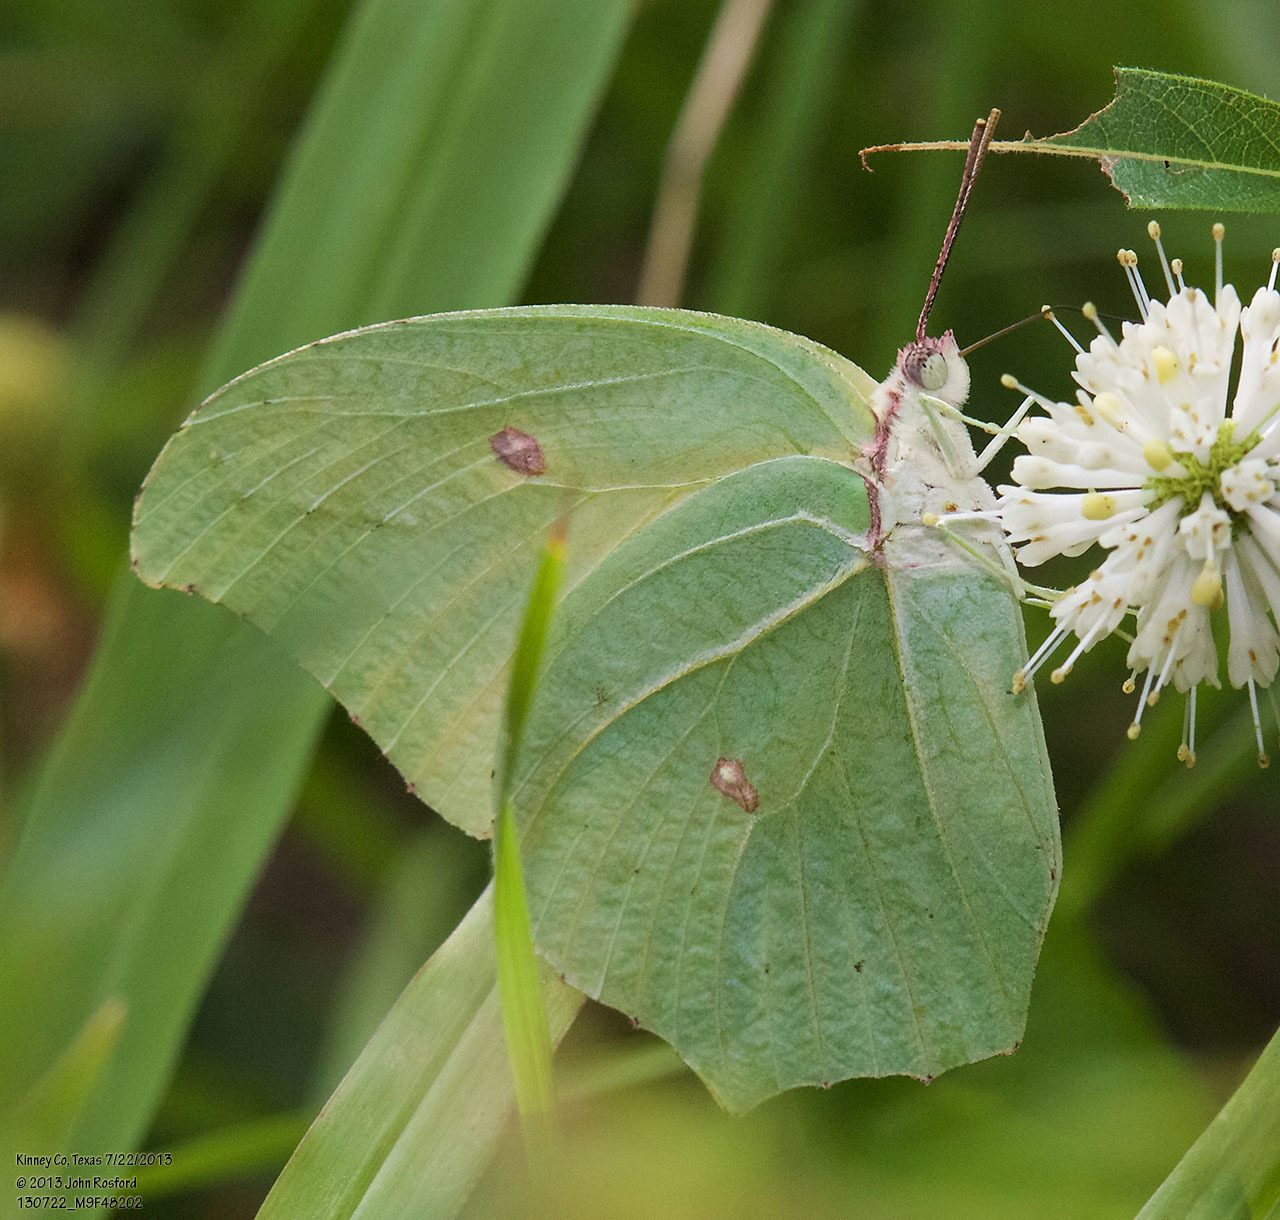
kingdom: Animalia
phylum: Arthropoda
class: Insecta
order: Lepidoptera
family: Pieridae
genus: Anteos
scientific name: Anteos maerula
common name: Angled sulphur
